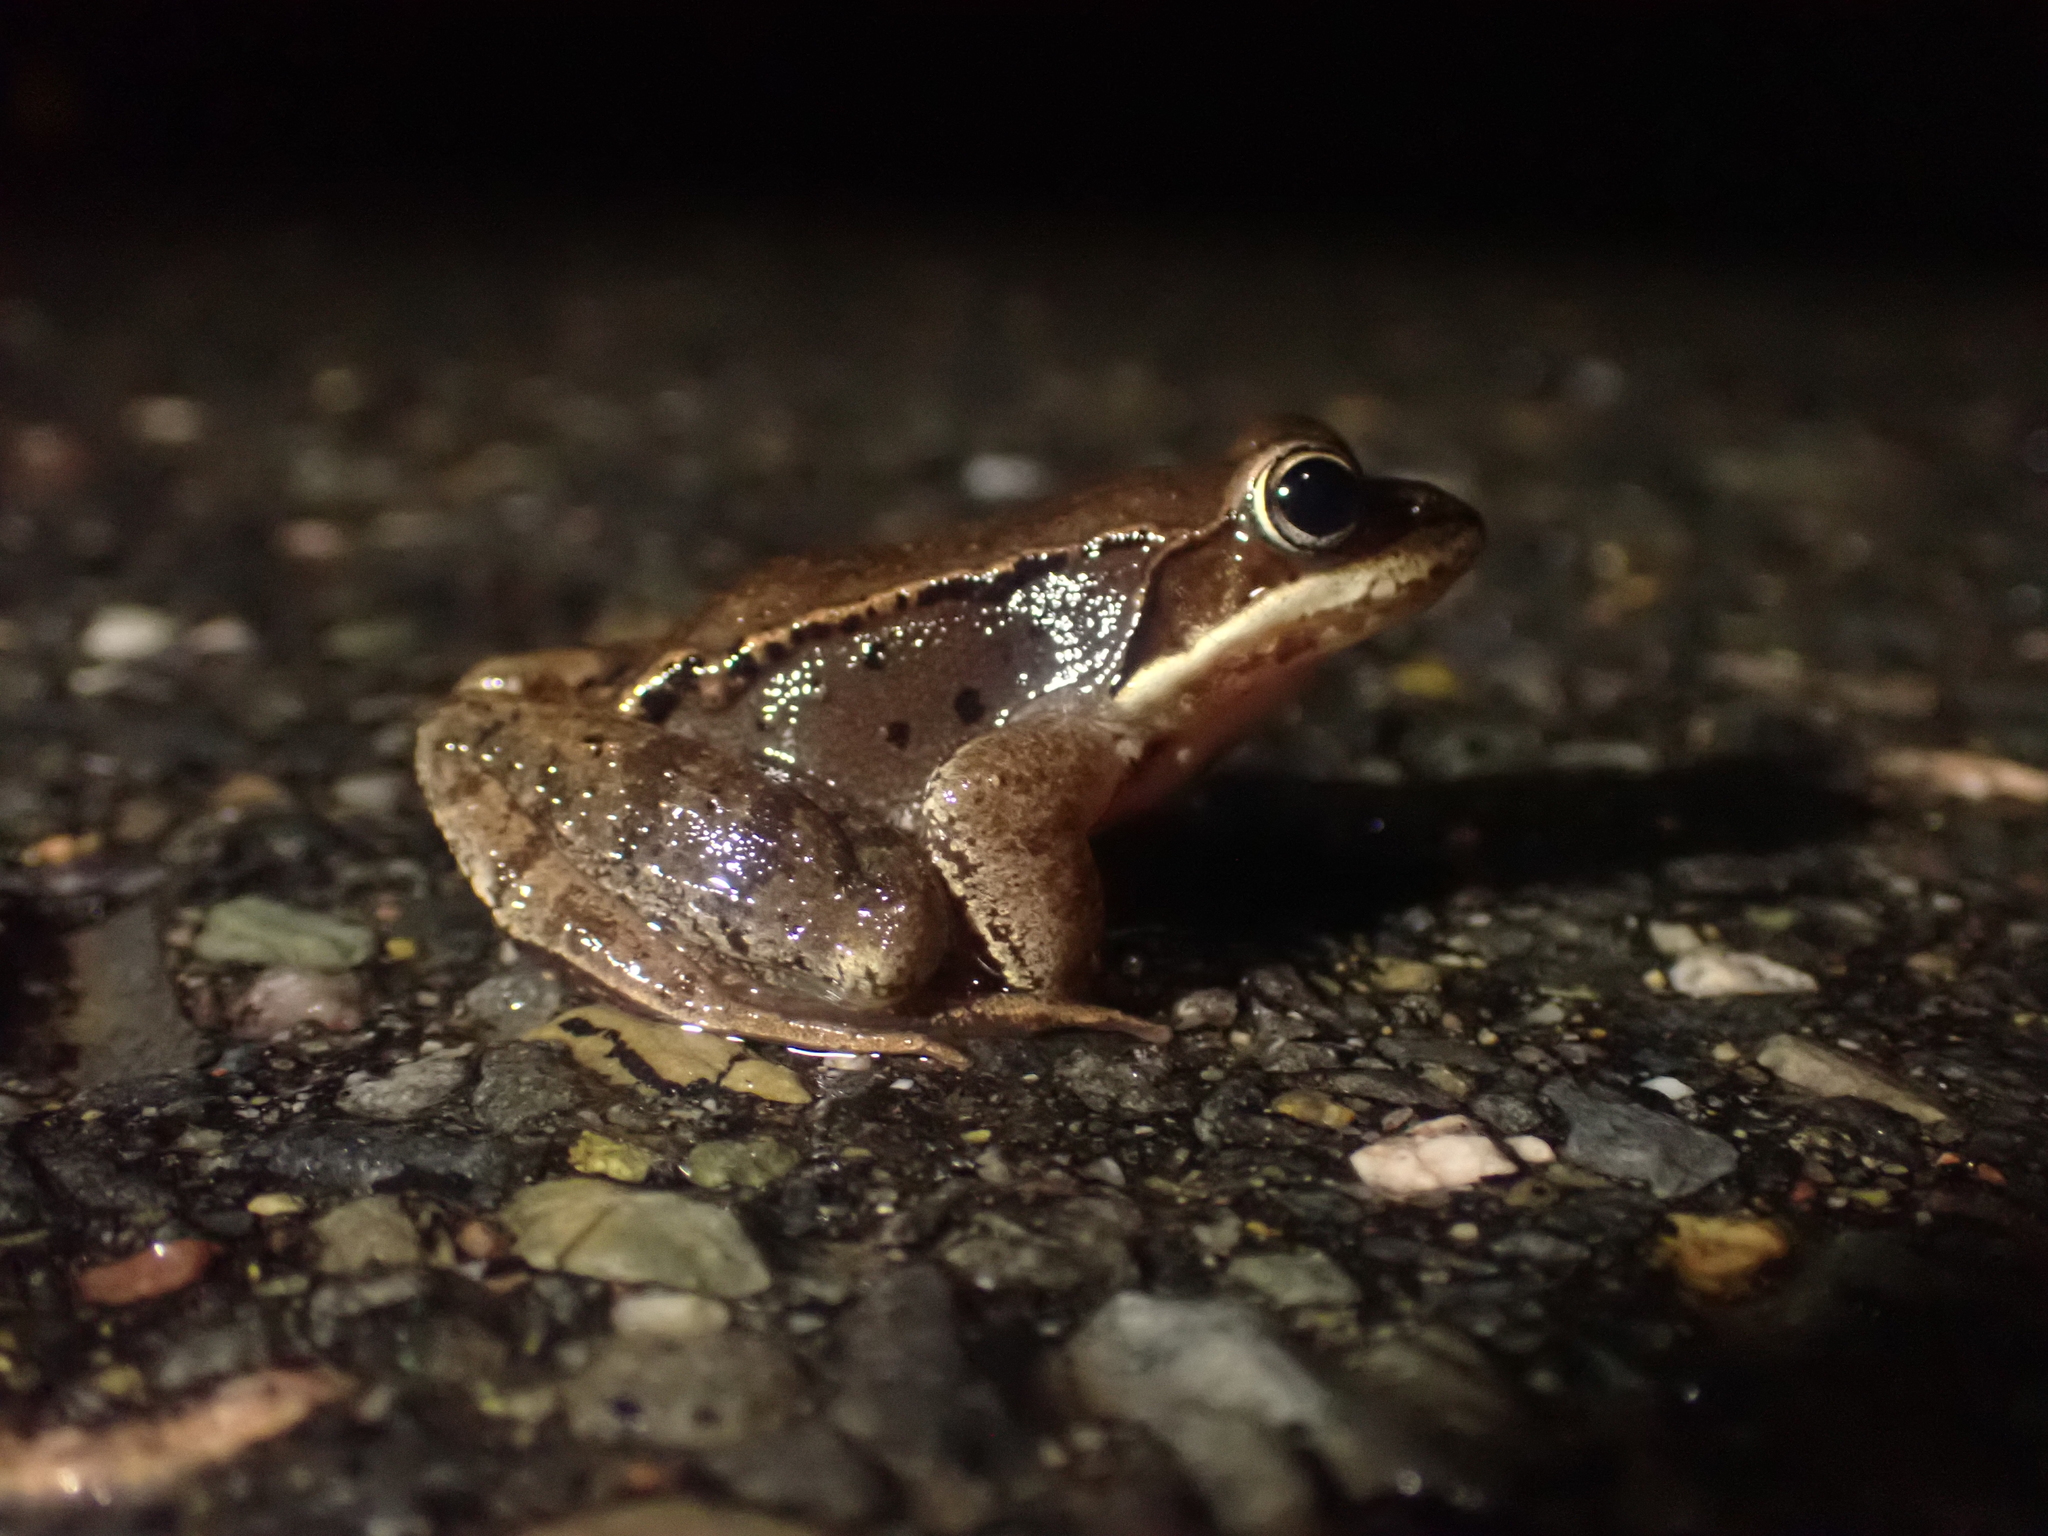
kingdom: Animalia
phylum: Chordata
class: Amphibia
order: Anura
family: Ranidae
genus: Lithobates
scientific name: Lithobates sylvaticus
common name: Wood frog
